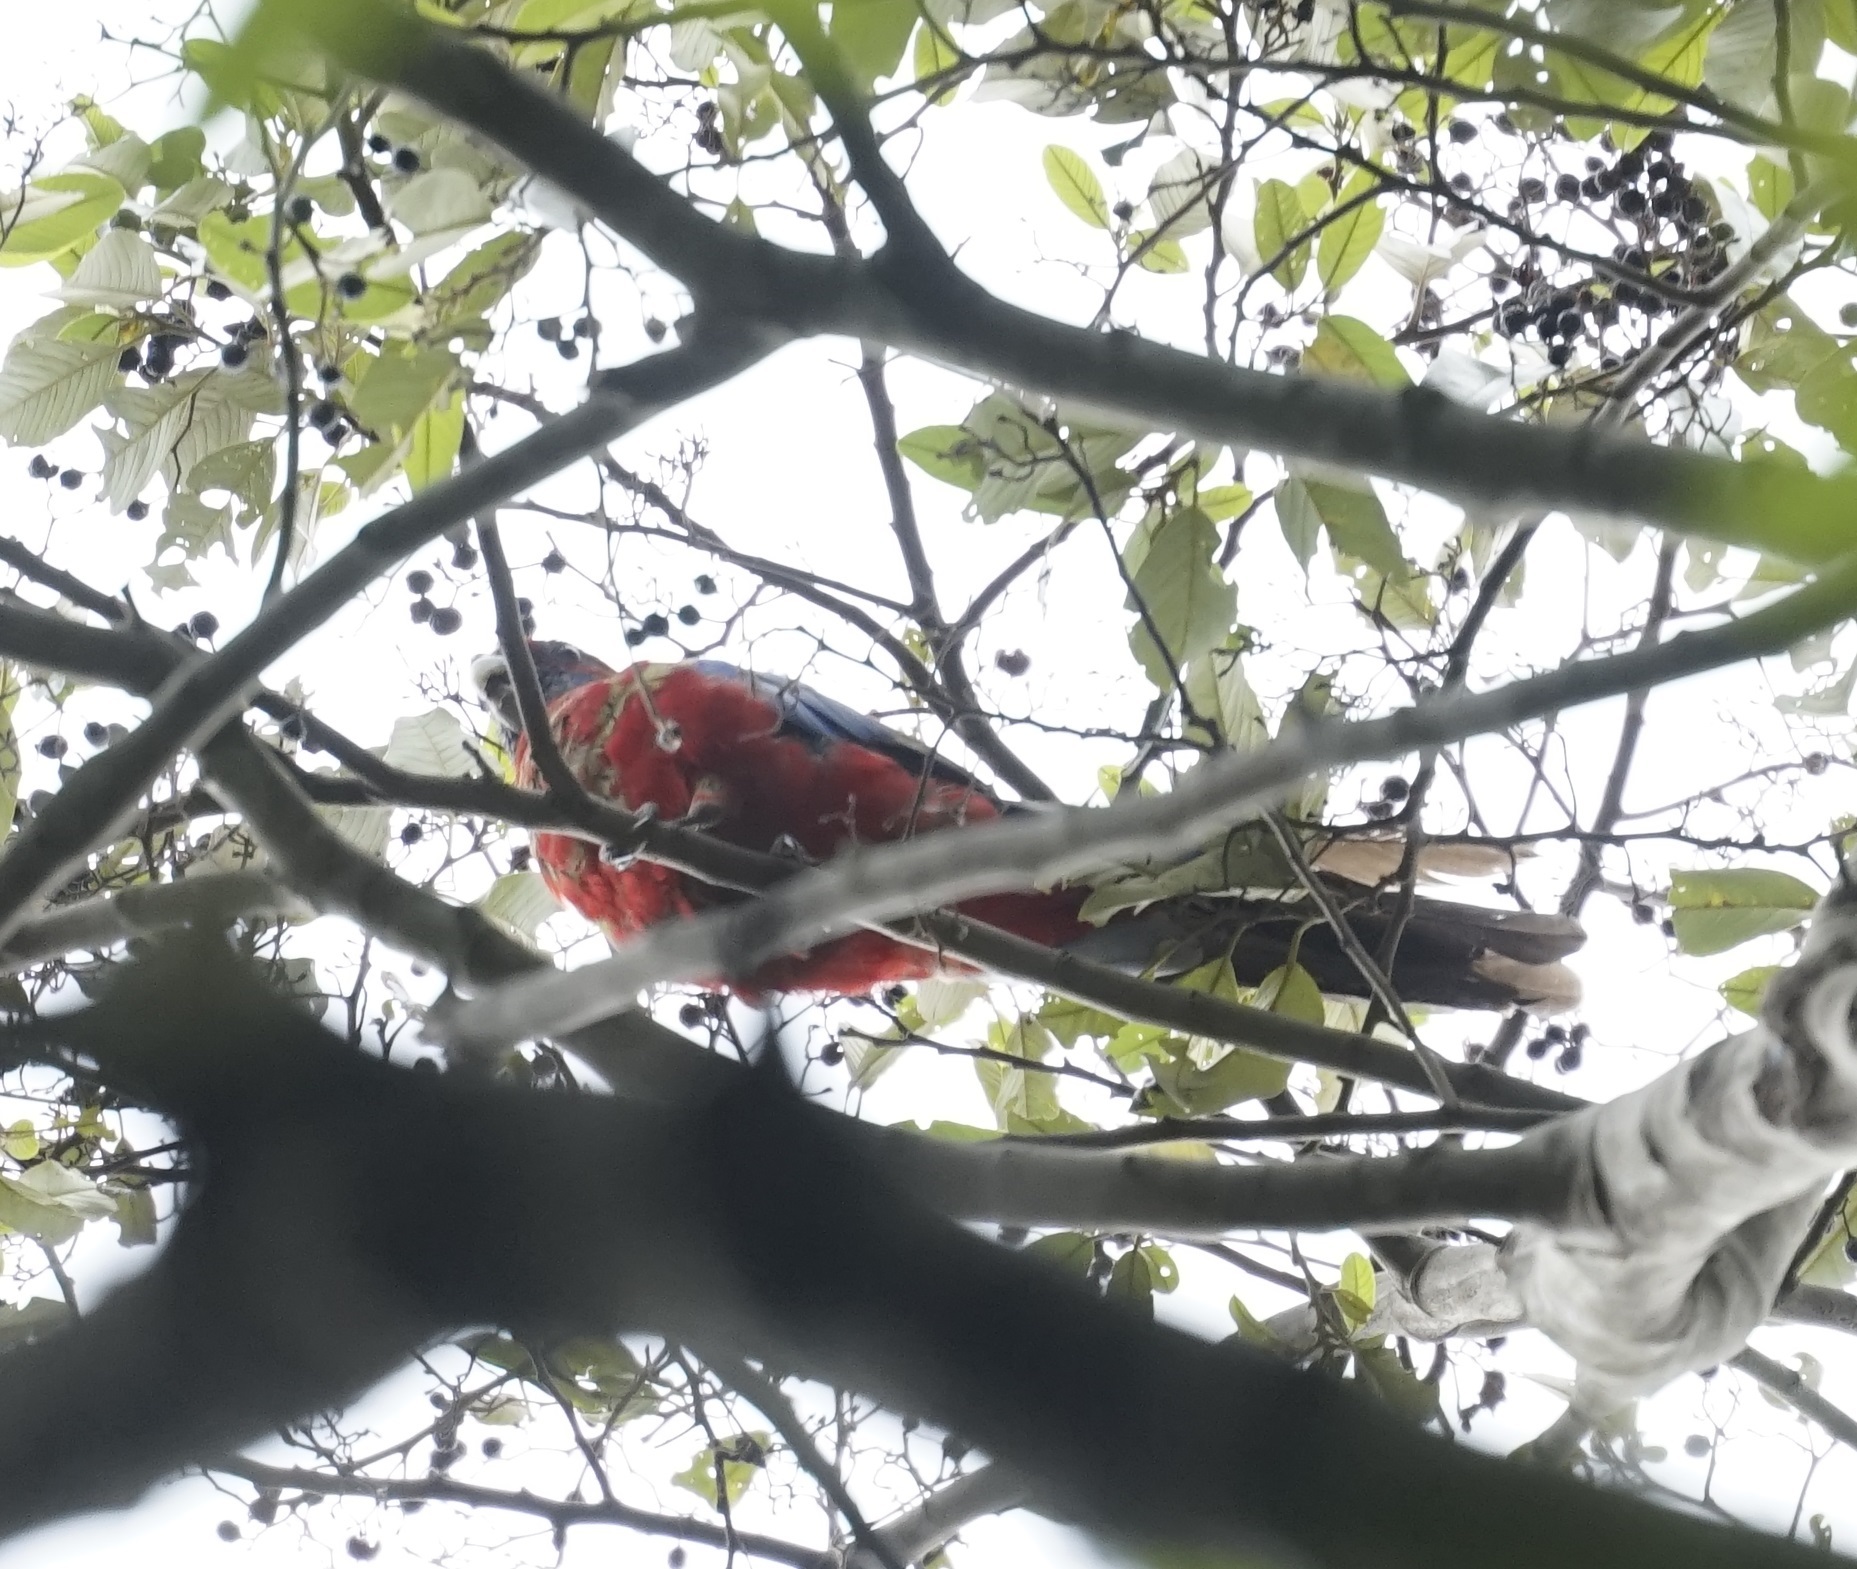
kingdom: Animalia
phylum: Chordata
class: Aves
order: Psittaciformes
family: Psittacidae
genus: Platycercus
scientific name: Platycercus elegans
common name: Crimson rosella
